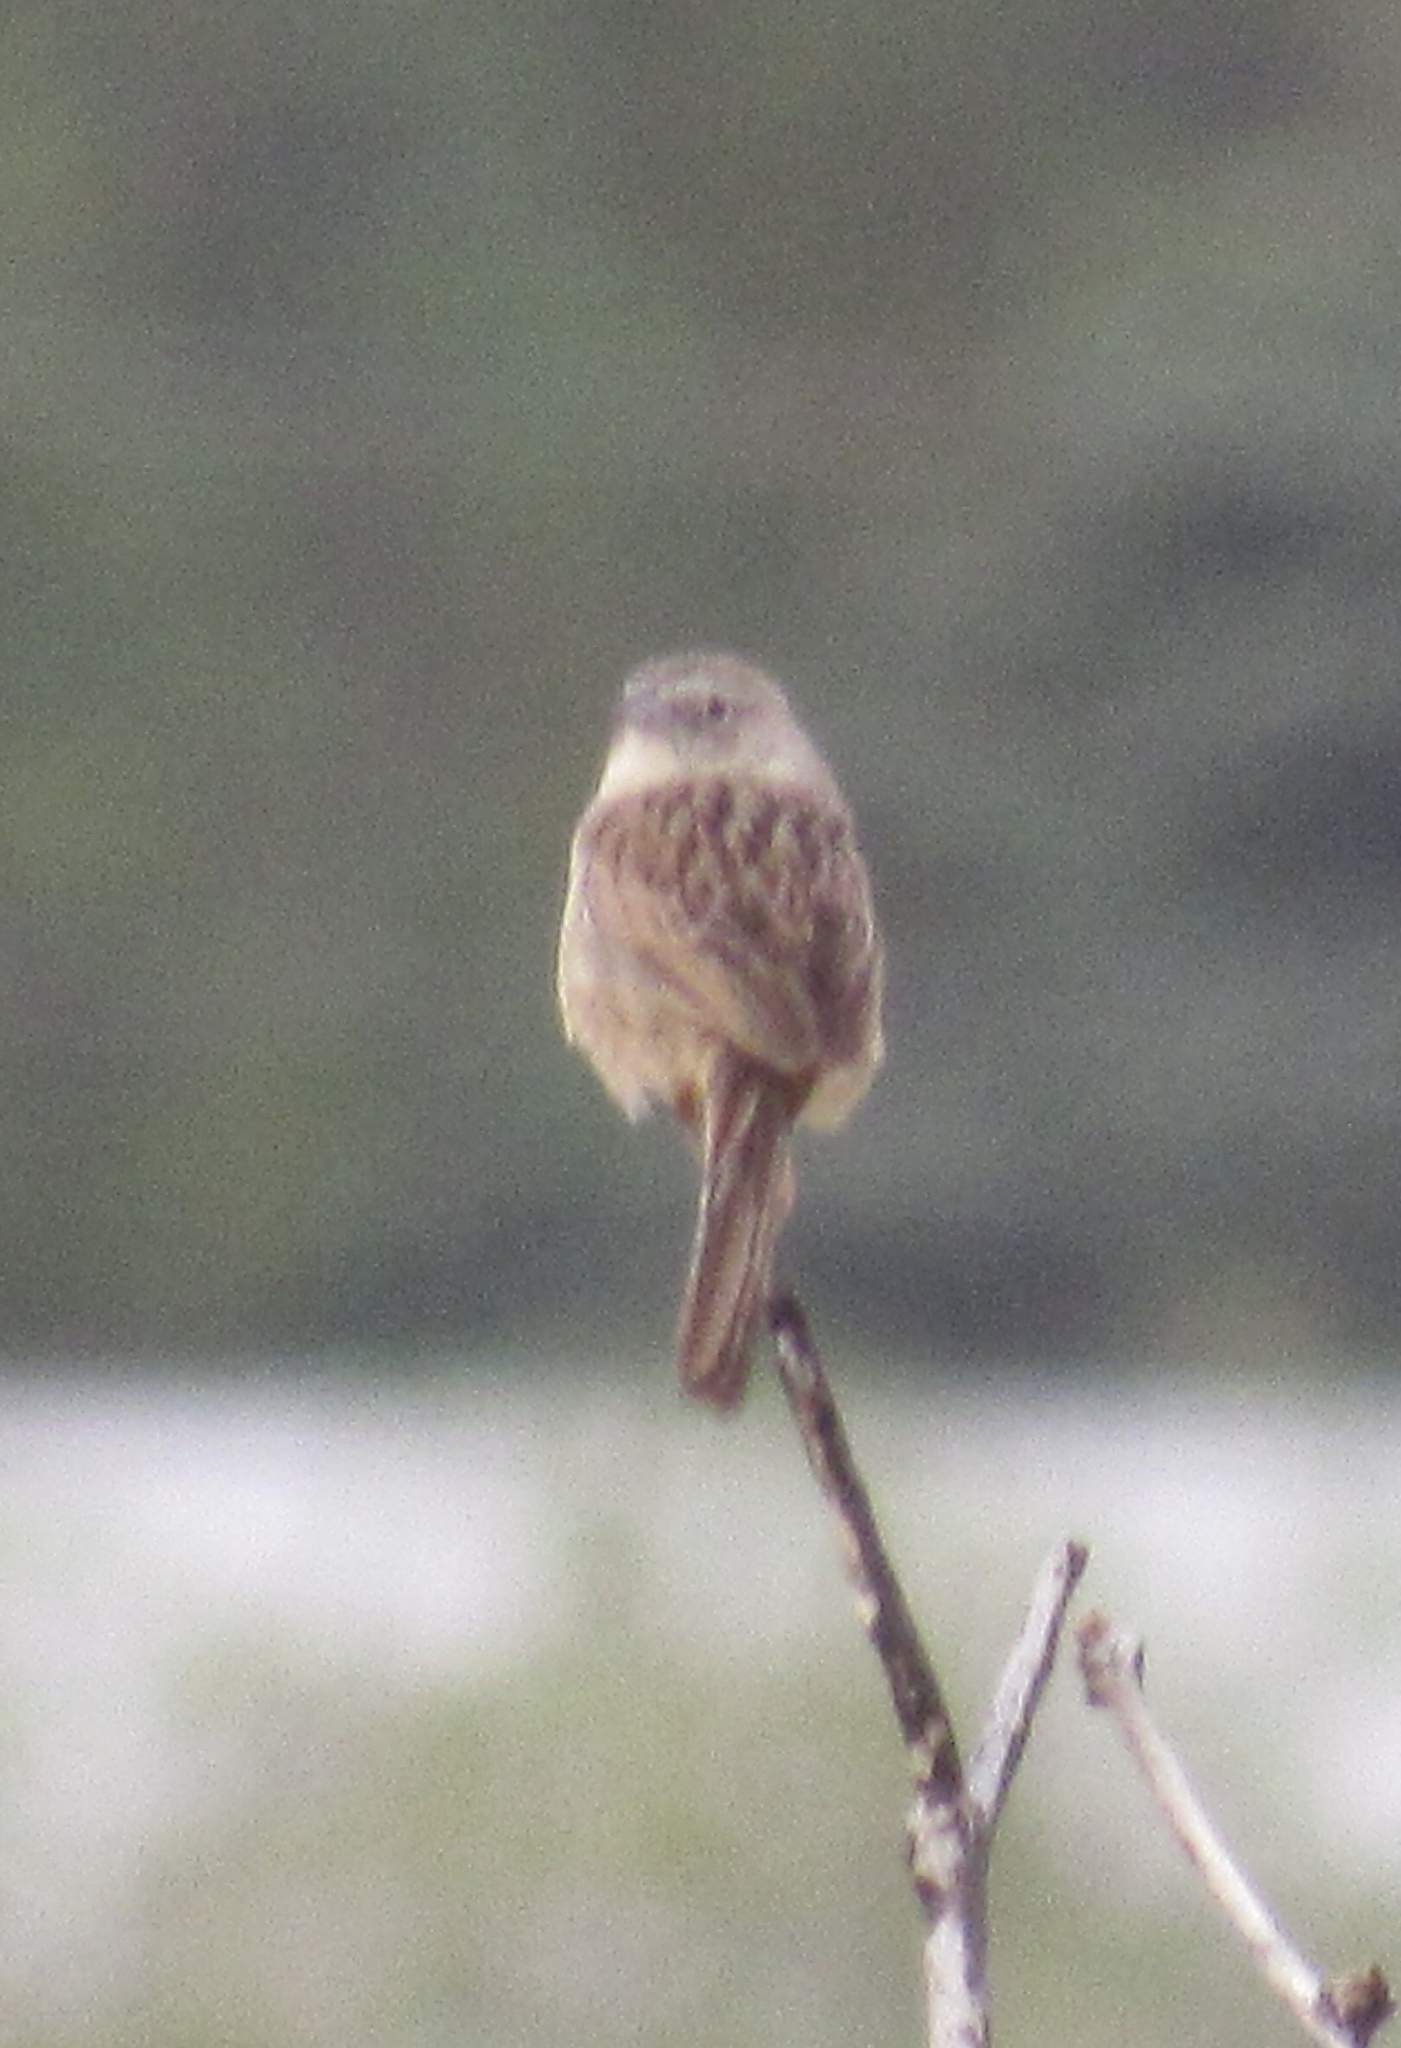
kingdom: Animalia
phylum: Chordata
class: Aves
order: Passeriformes
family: Passerellidae
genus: Peucaea
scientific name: Peucaea botterii
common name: Botteri's sparrow
